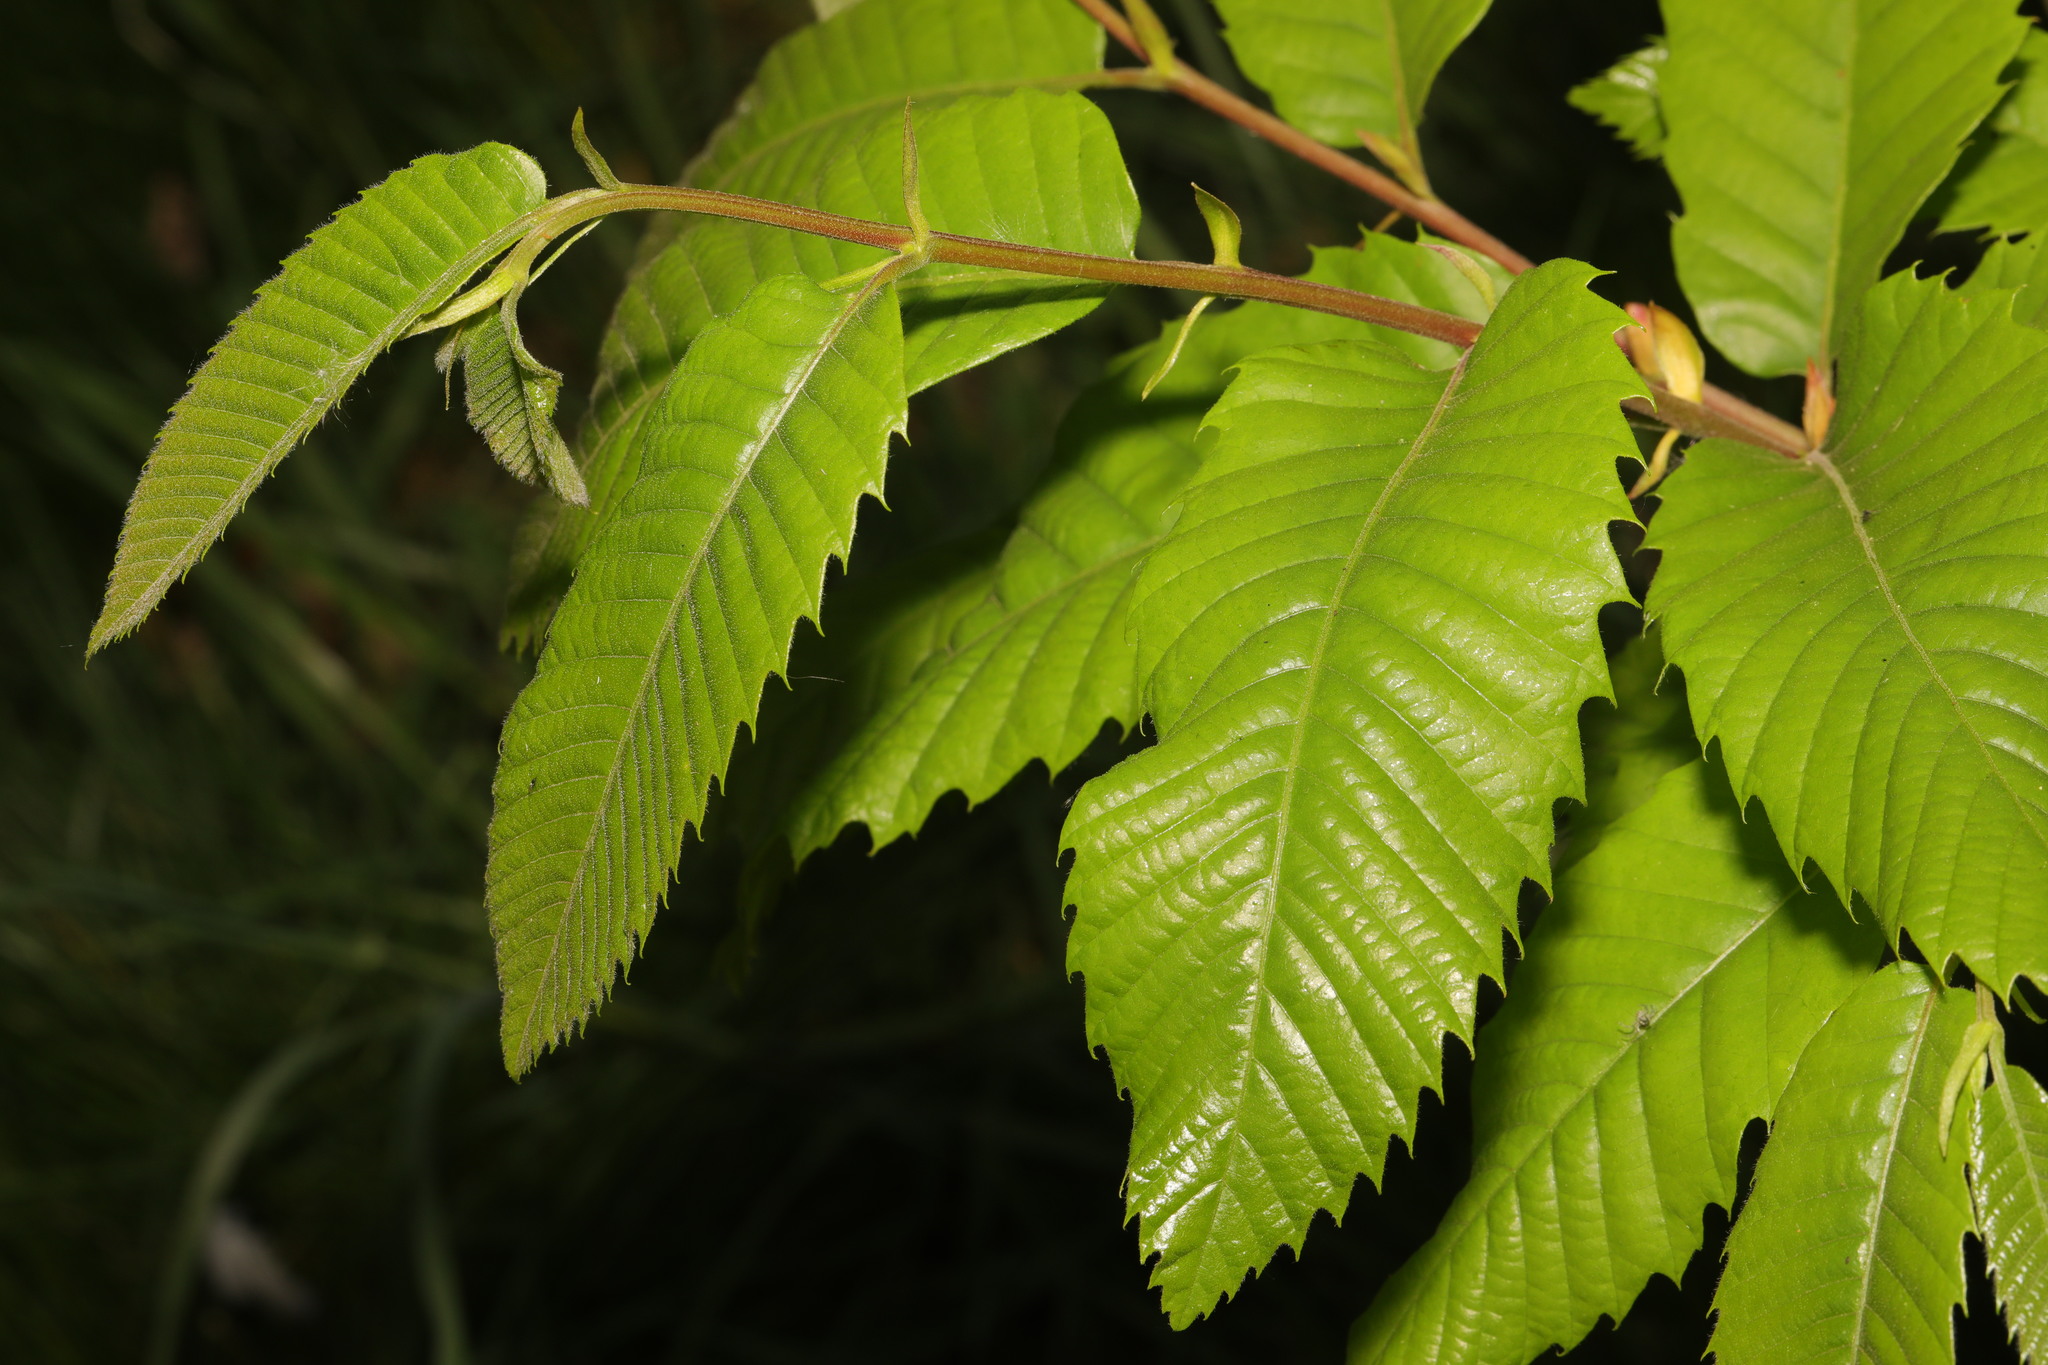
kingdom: Plantae
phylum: Tracheophyta
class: Magnoliopsida
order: Fagales
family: Fagaceae
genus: Castanea
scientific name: Castanea sativa
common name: Sweet chestnut
